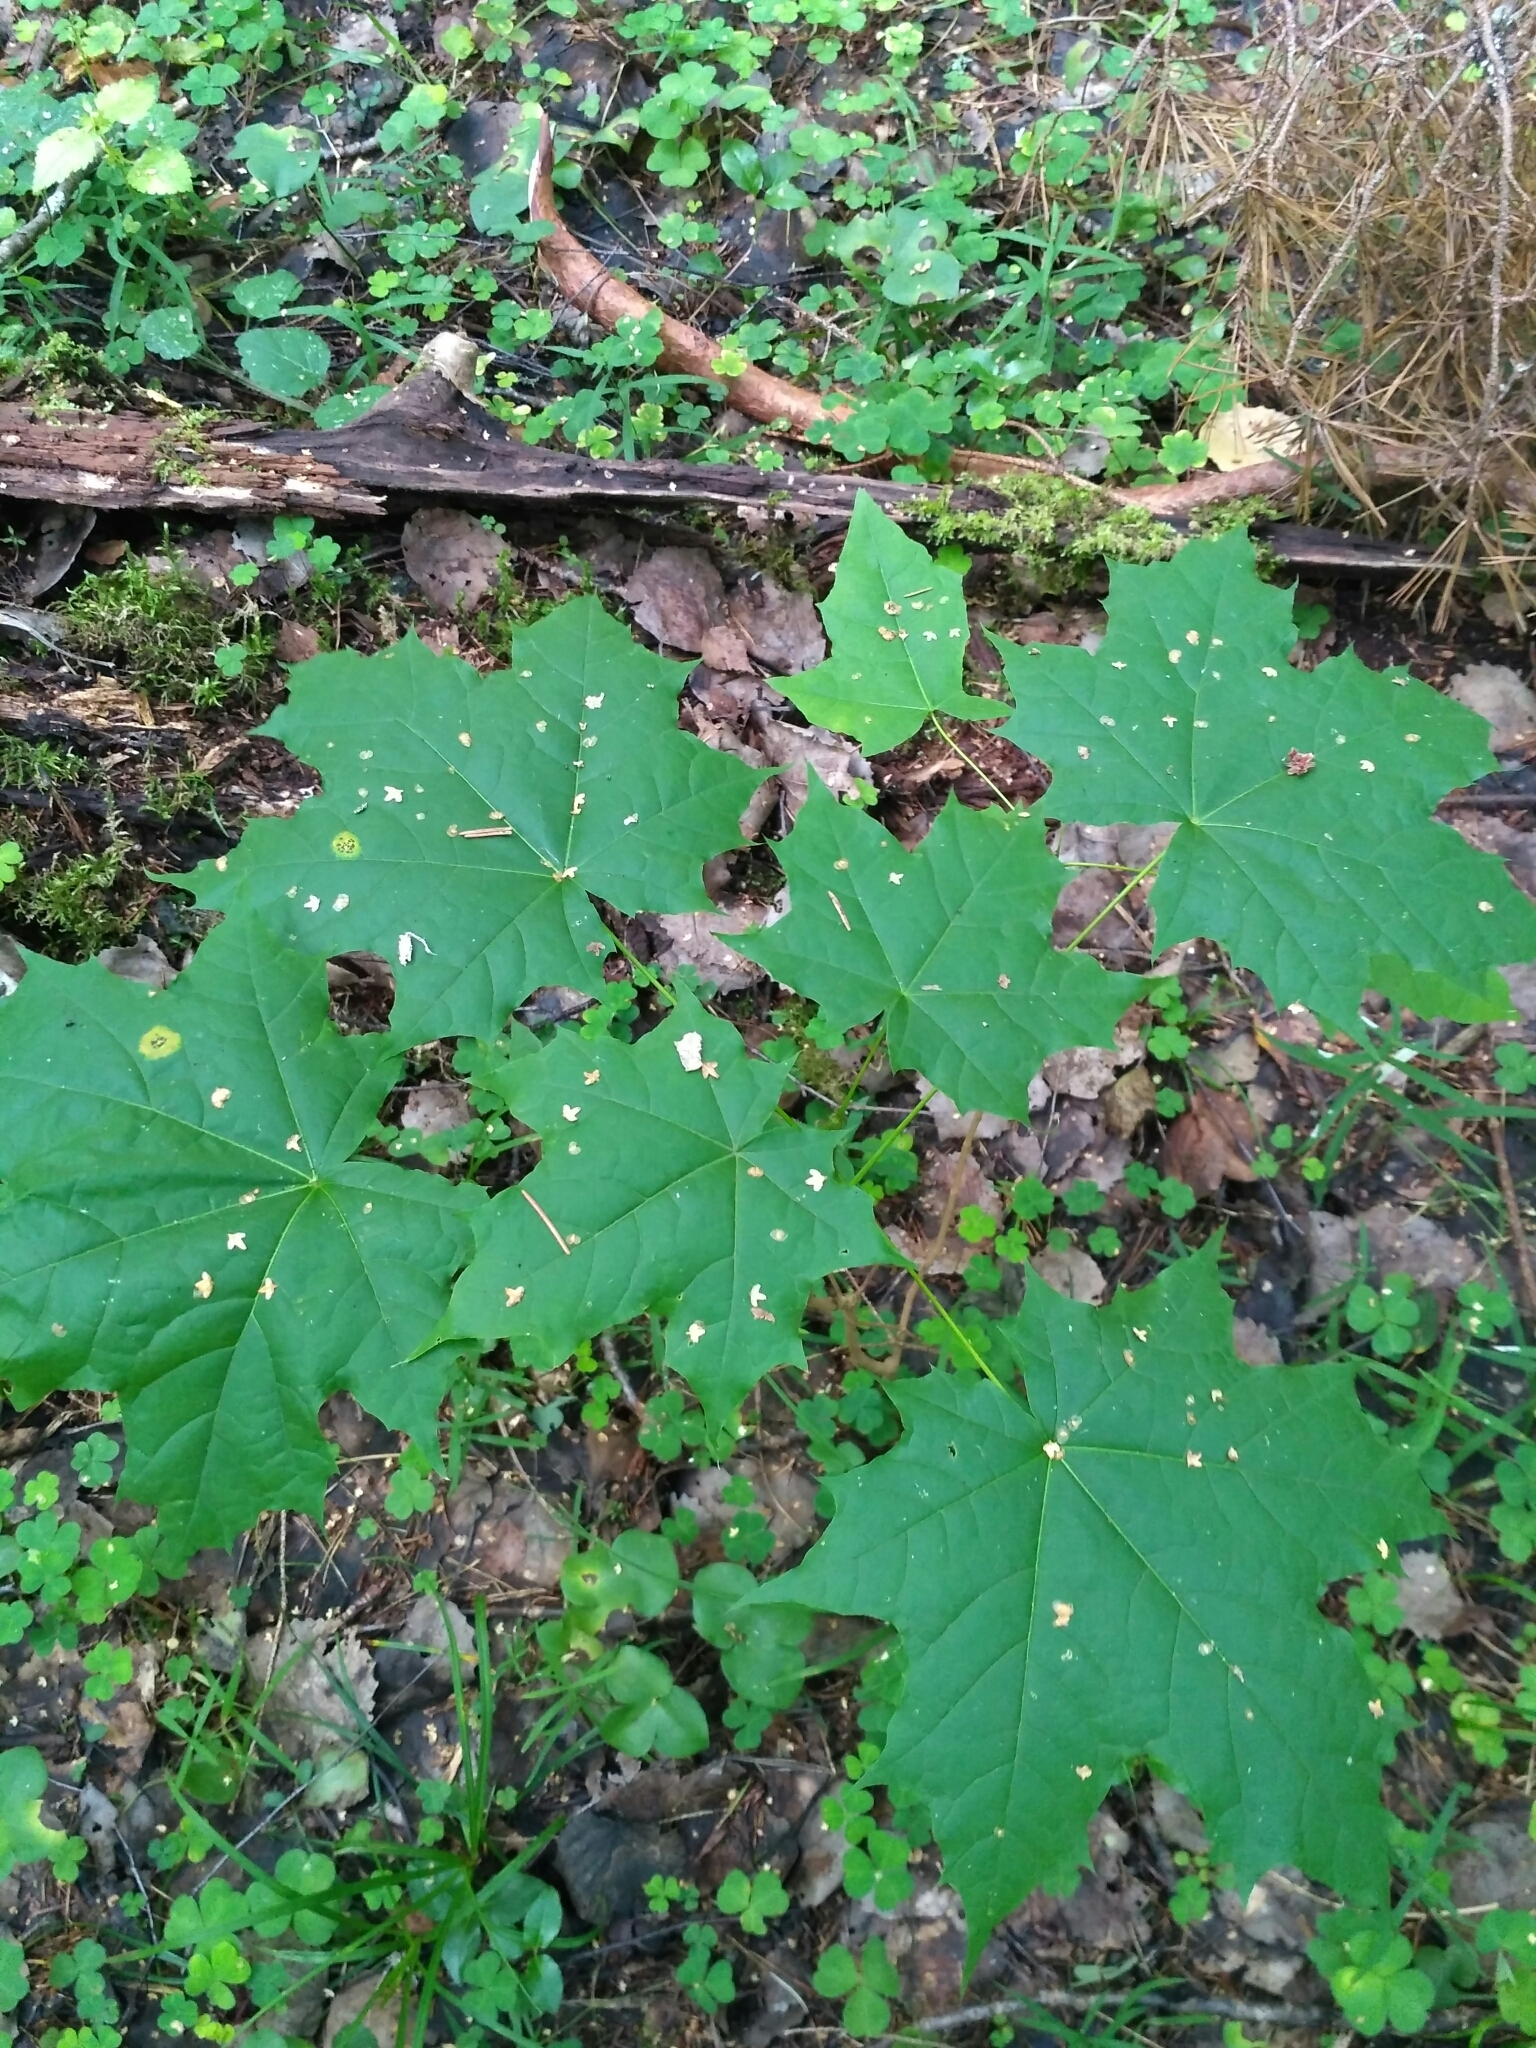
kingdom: Plantae
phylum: Tracheophyta
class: Magnoliopsida
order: Sapindales
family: Sapindaceae
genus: Acer
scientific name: Acer platanoides
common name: Norway maple
